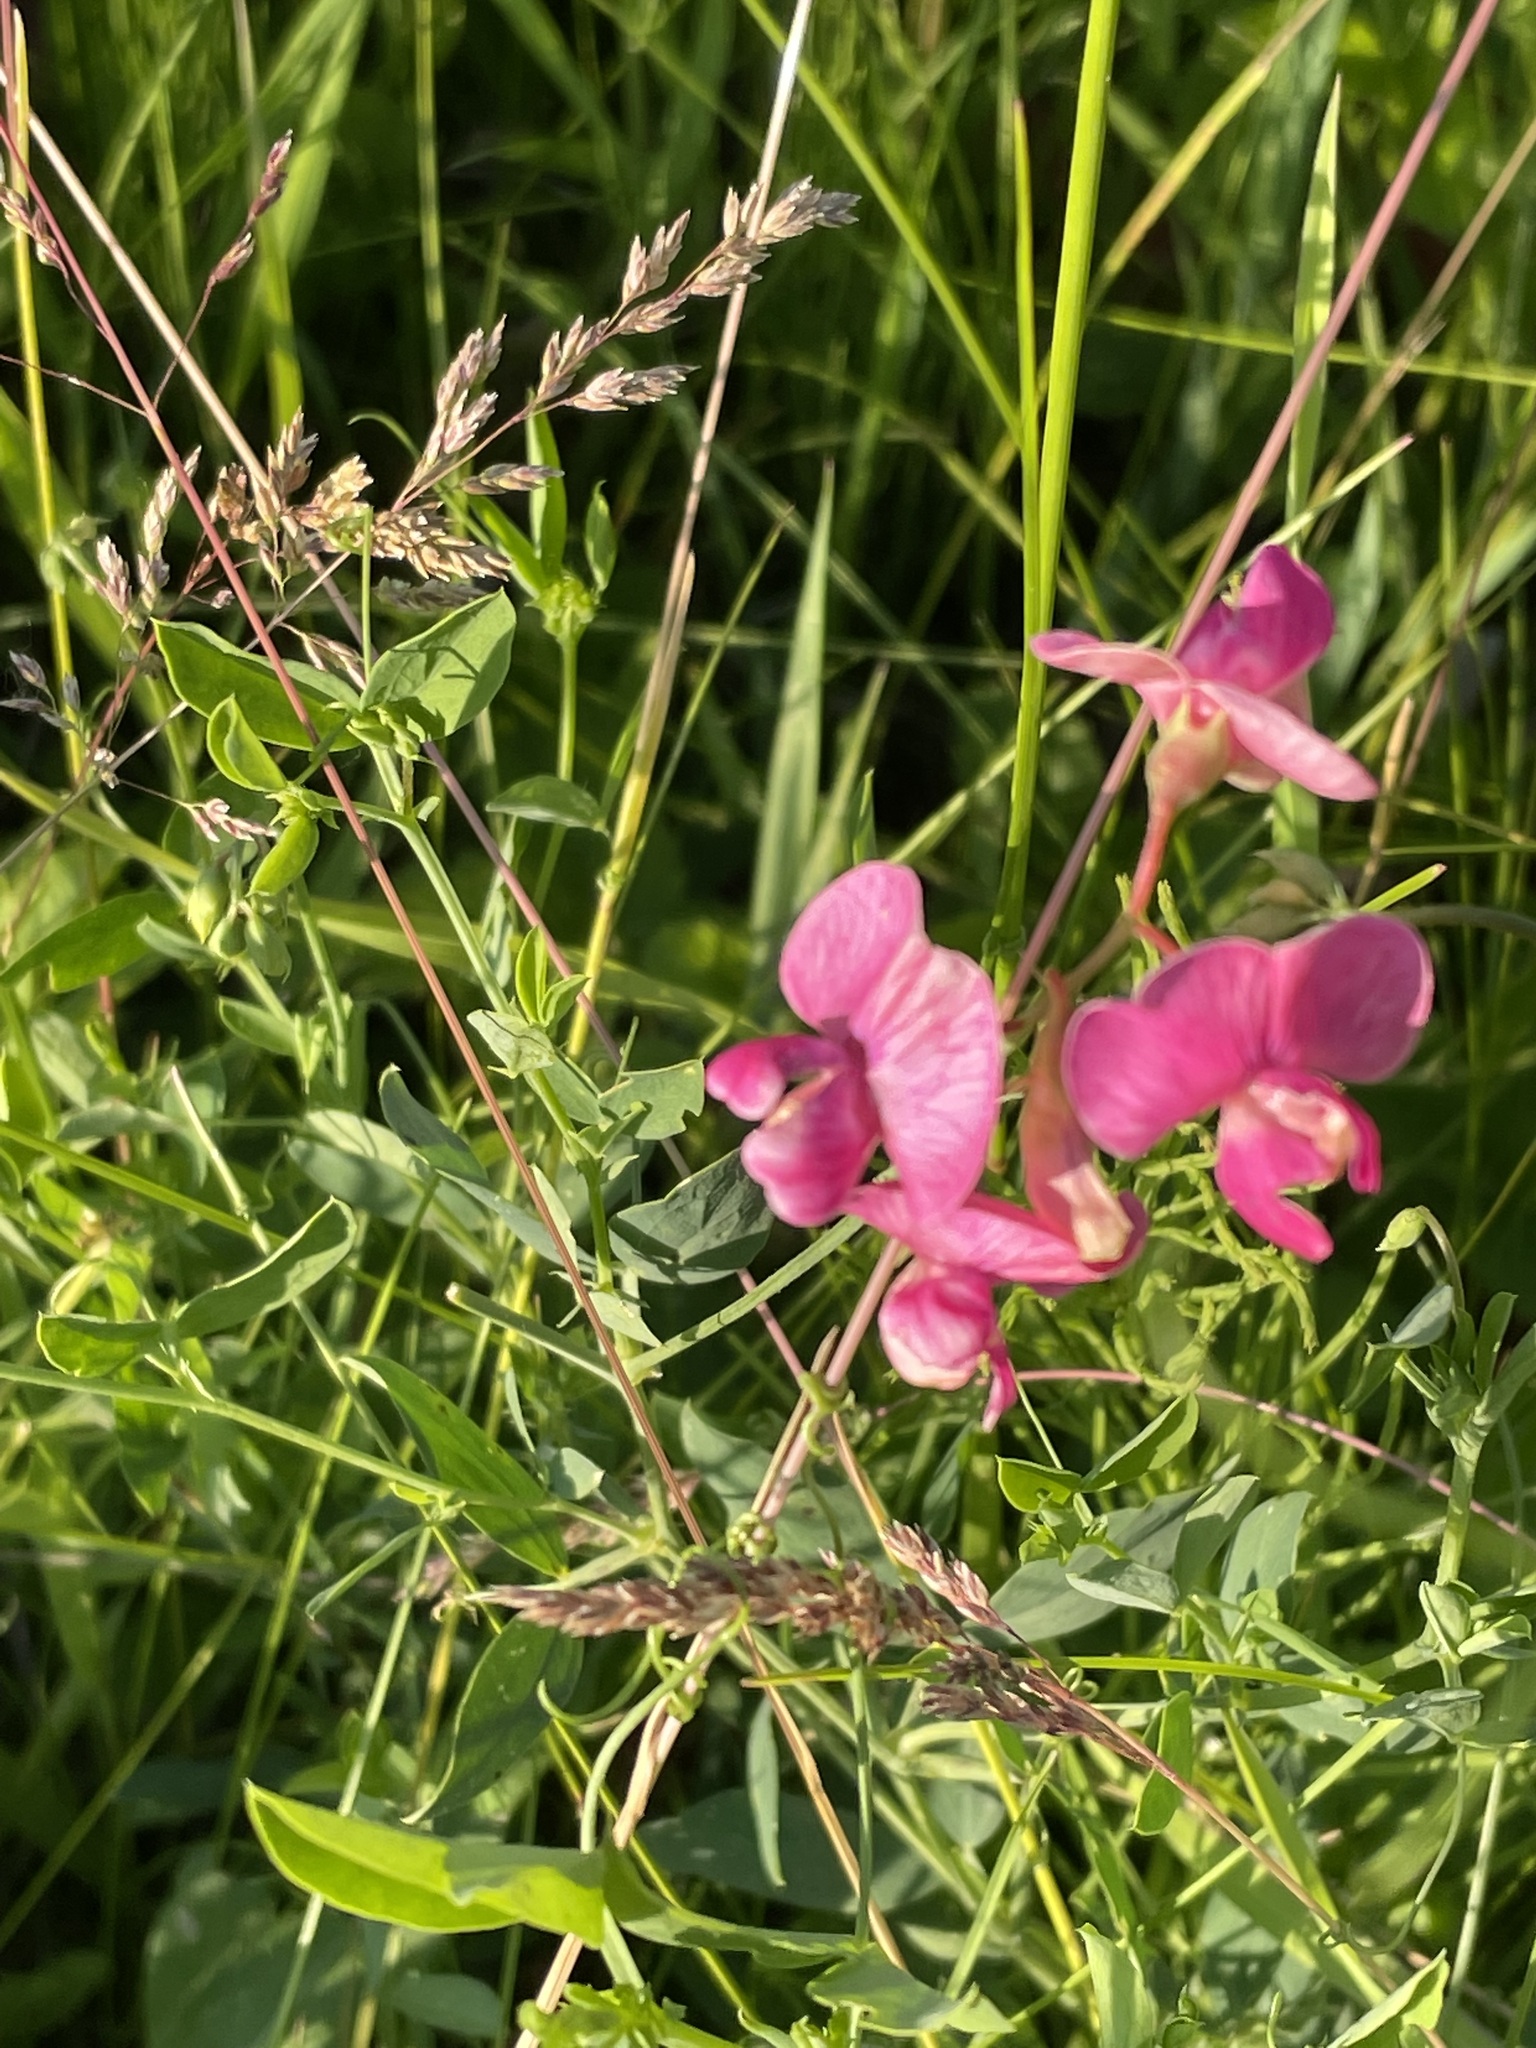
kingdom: Plantae
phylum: Tracheophyta
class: Magnoliopsida
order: Fabales
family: Fabaceae
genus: Lathyrus
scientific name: Lathyrus tuberosus
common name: Tuberous pea
